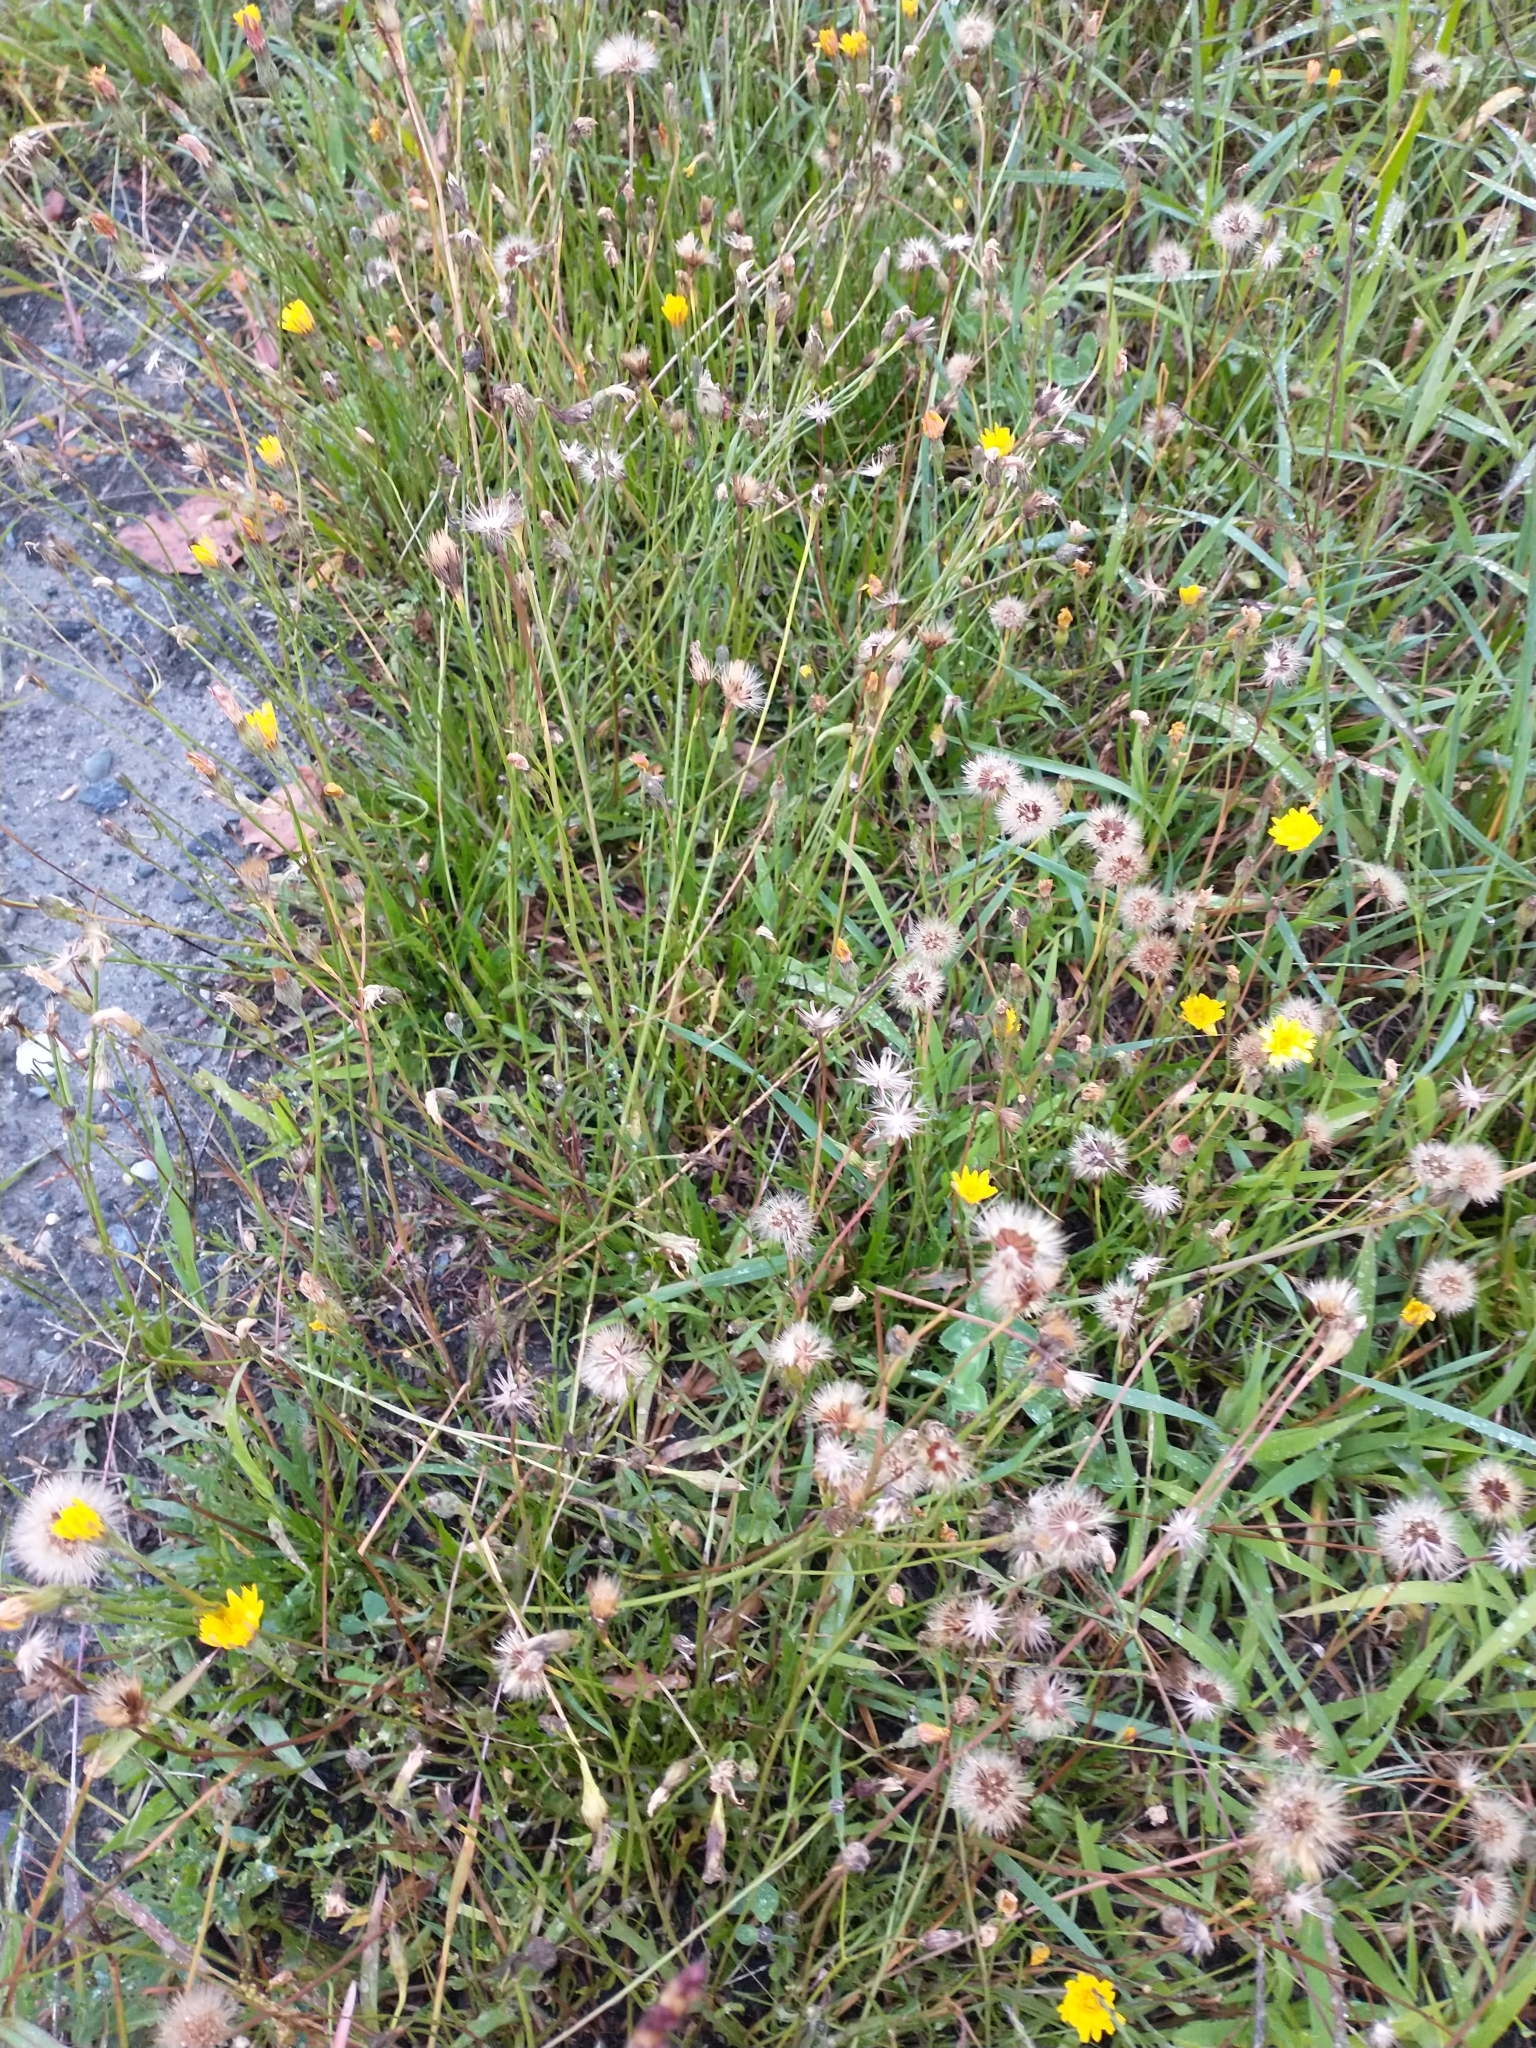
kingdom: Plantae
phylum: Tracheophyta
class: Magnoliopsida
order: Asterales
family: Asteraceae
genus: Scorzoneroides
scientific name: Scorzoneroides autumnalis
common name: Autumn hawkbit
